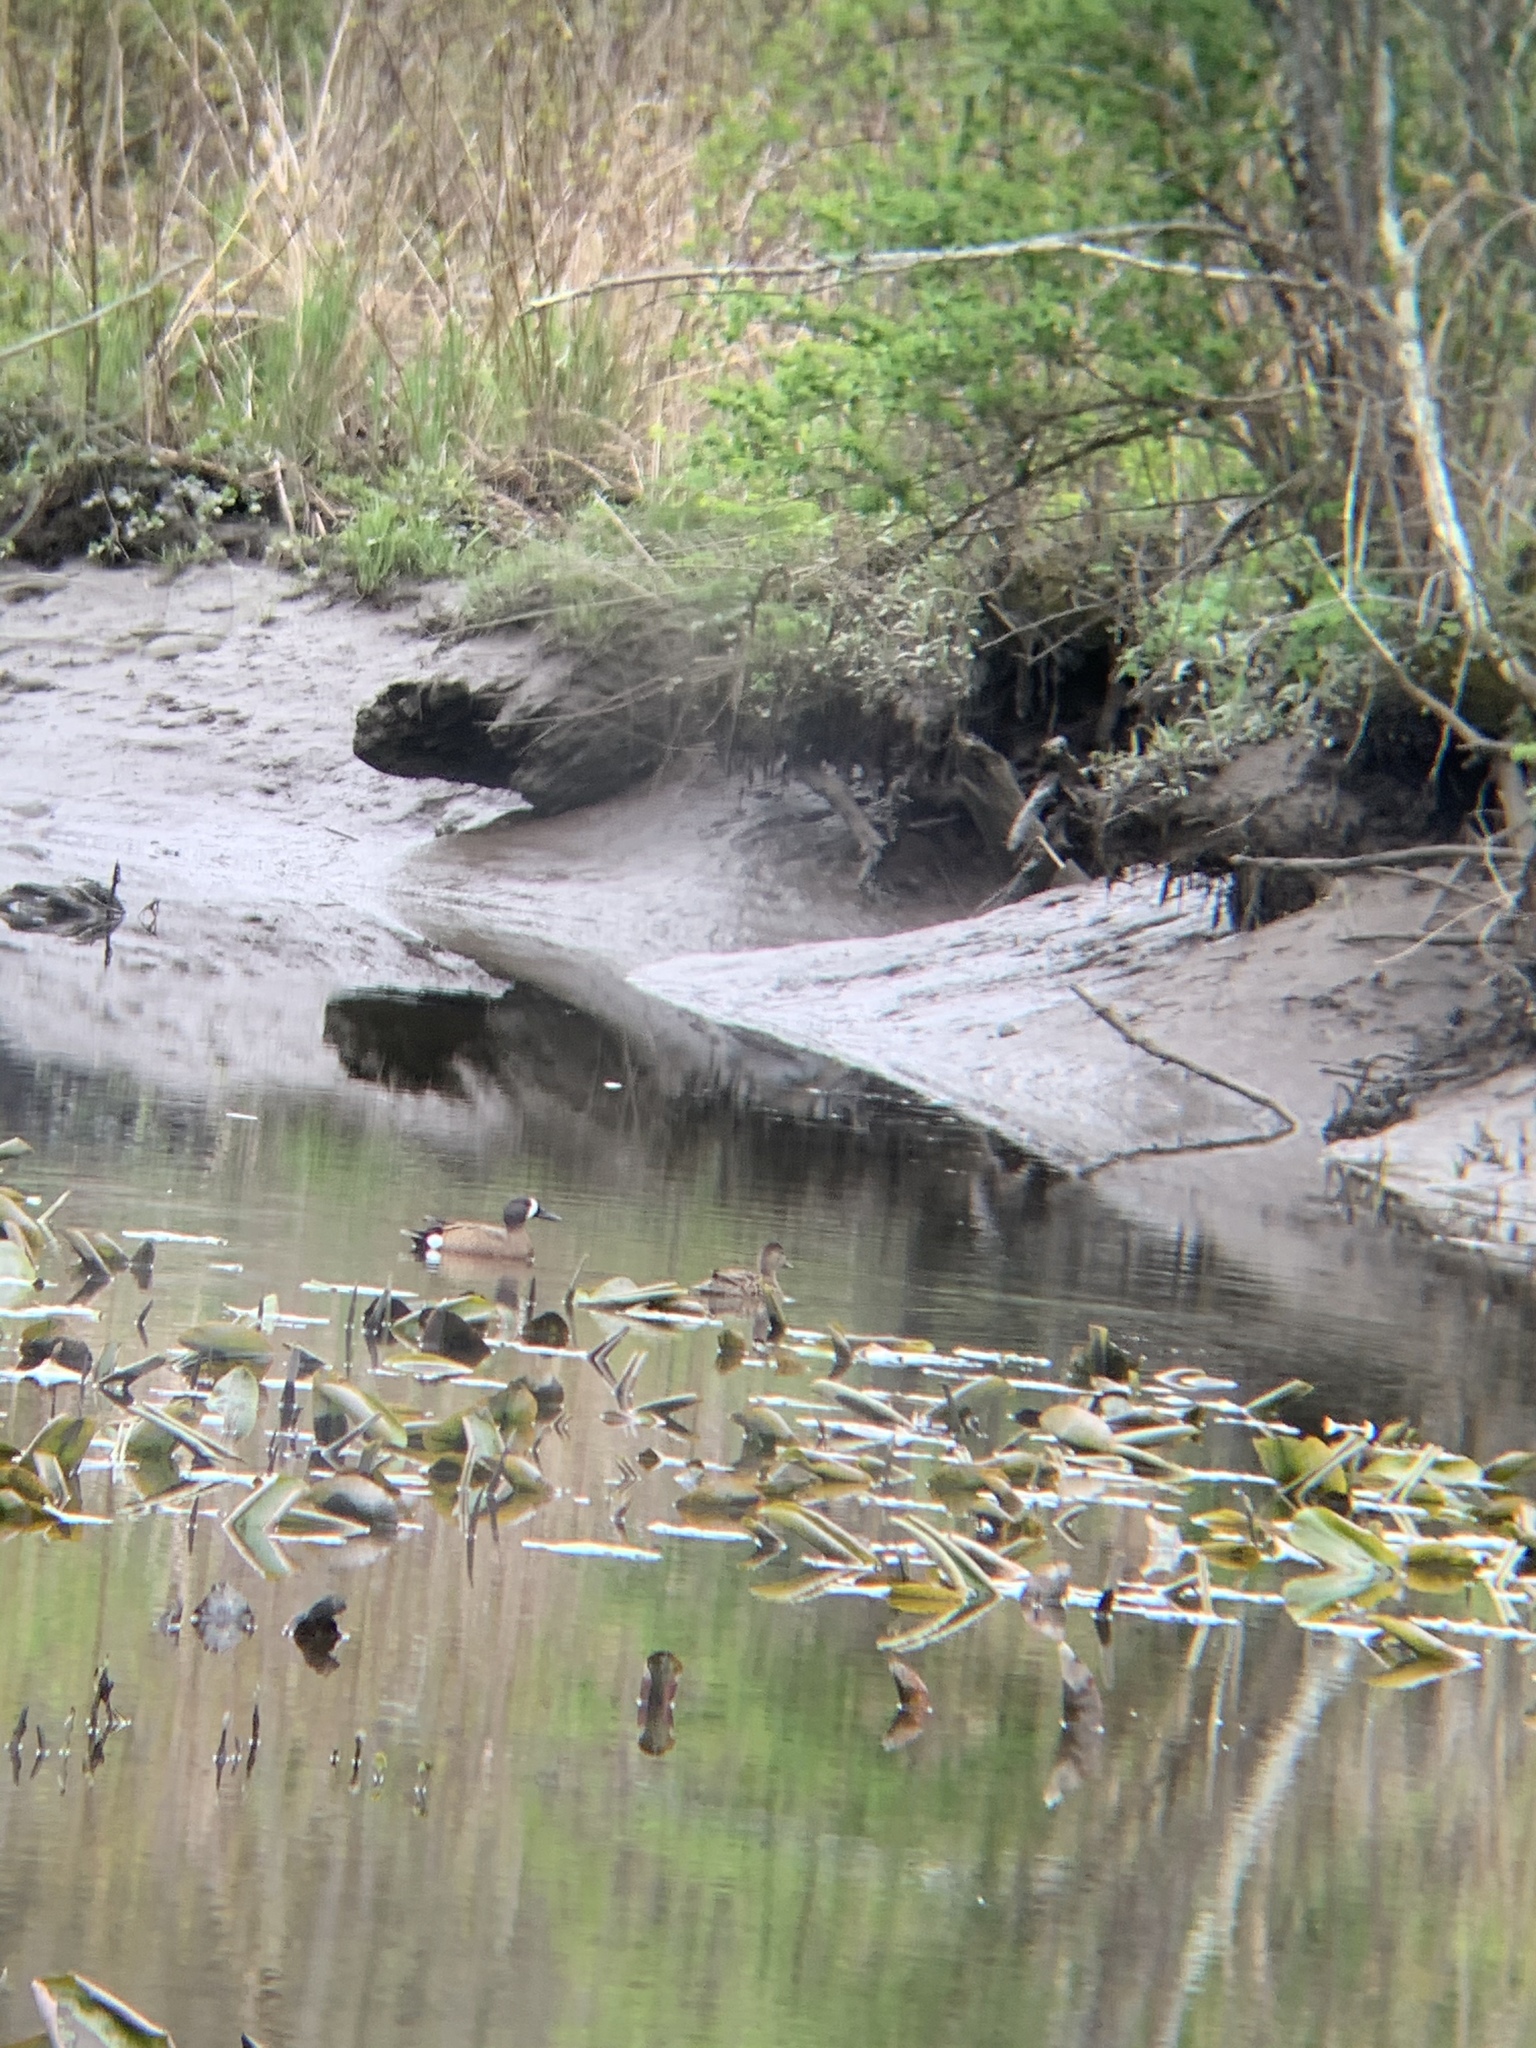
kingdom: Animalia
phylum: Chordata
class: Aves
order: Anseriformes
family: Anatidae
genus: Spatula
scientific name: Spatula discors
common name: Blue-winged teal
